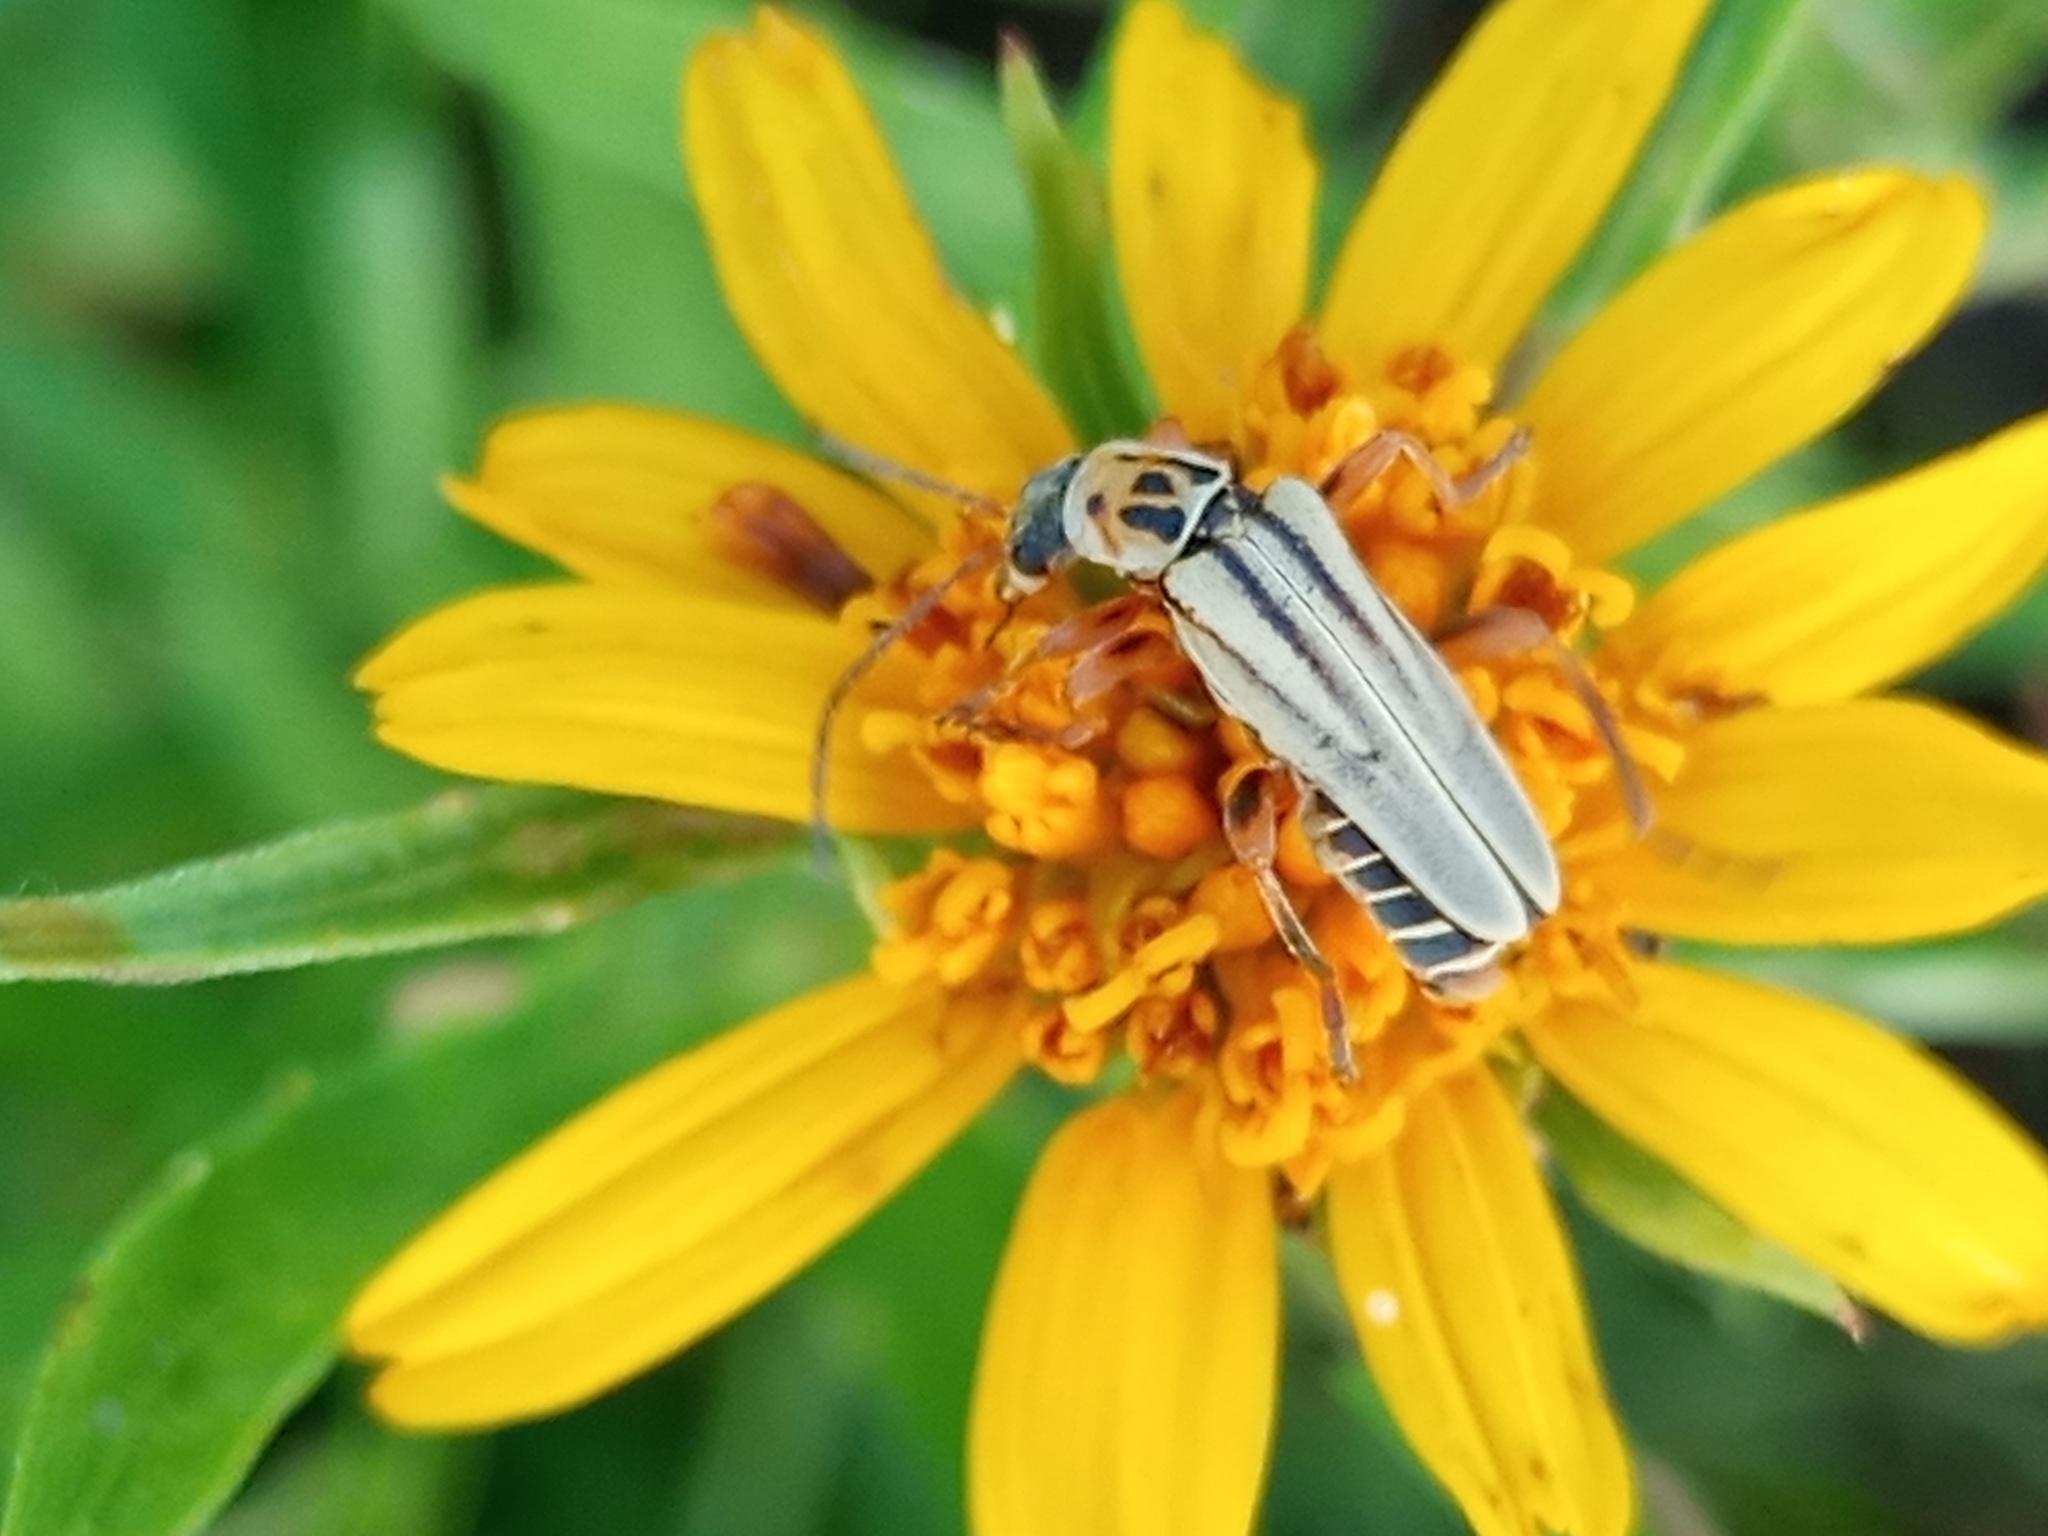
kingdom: Animalia
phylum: Arthropoda
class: Insecta
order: Coleoptera
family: Cantharidae
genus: Chauliognathus
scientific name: Chauliognathus
